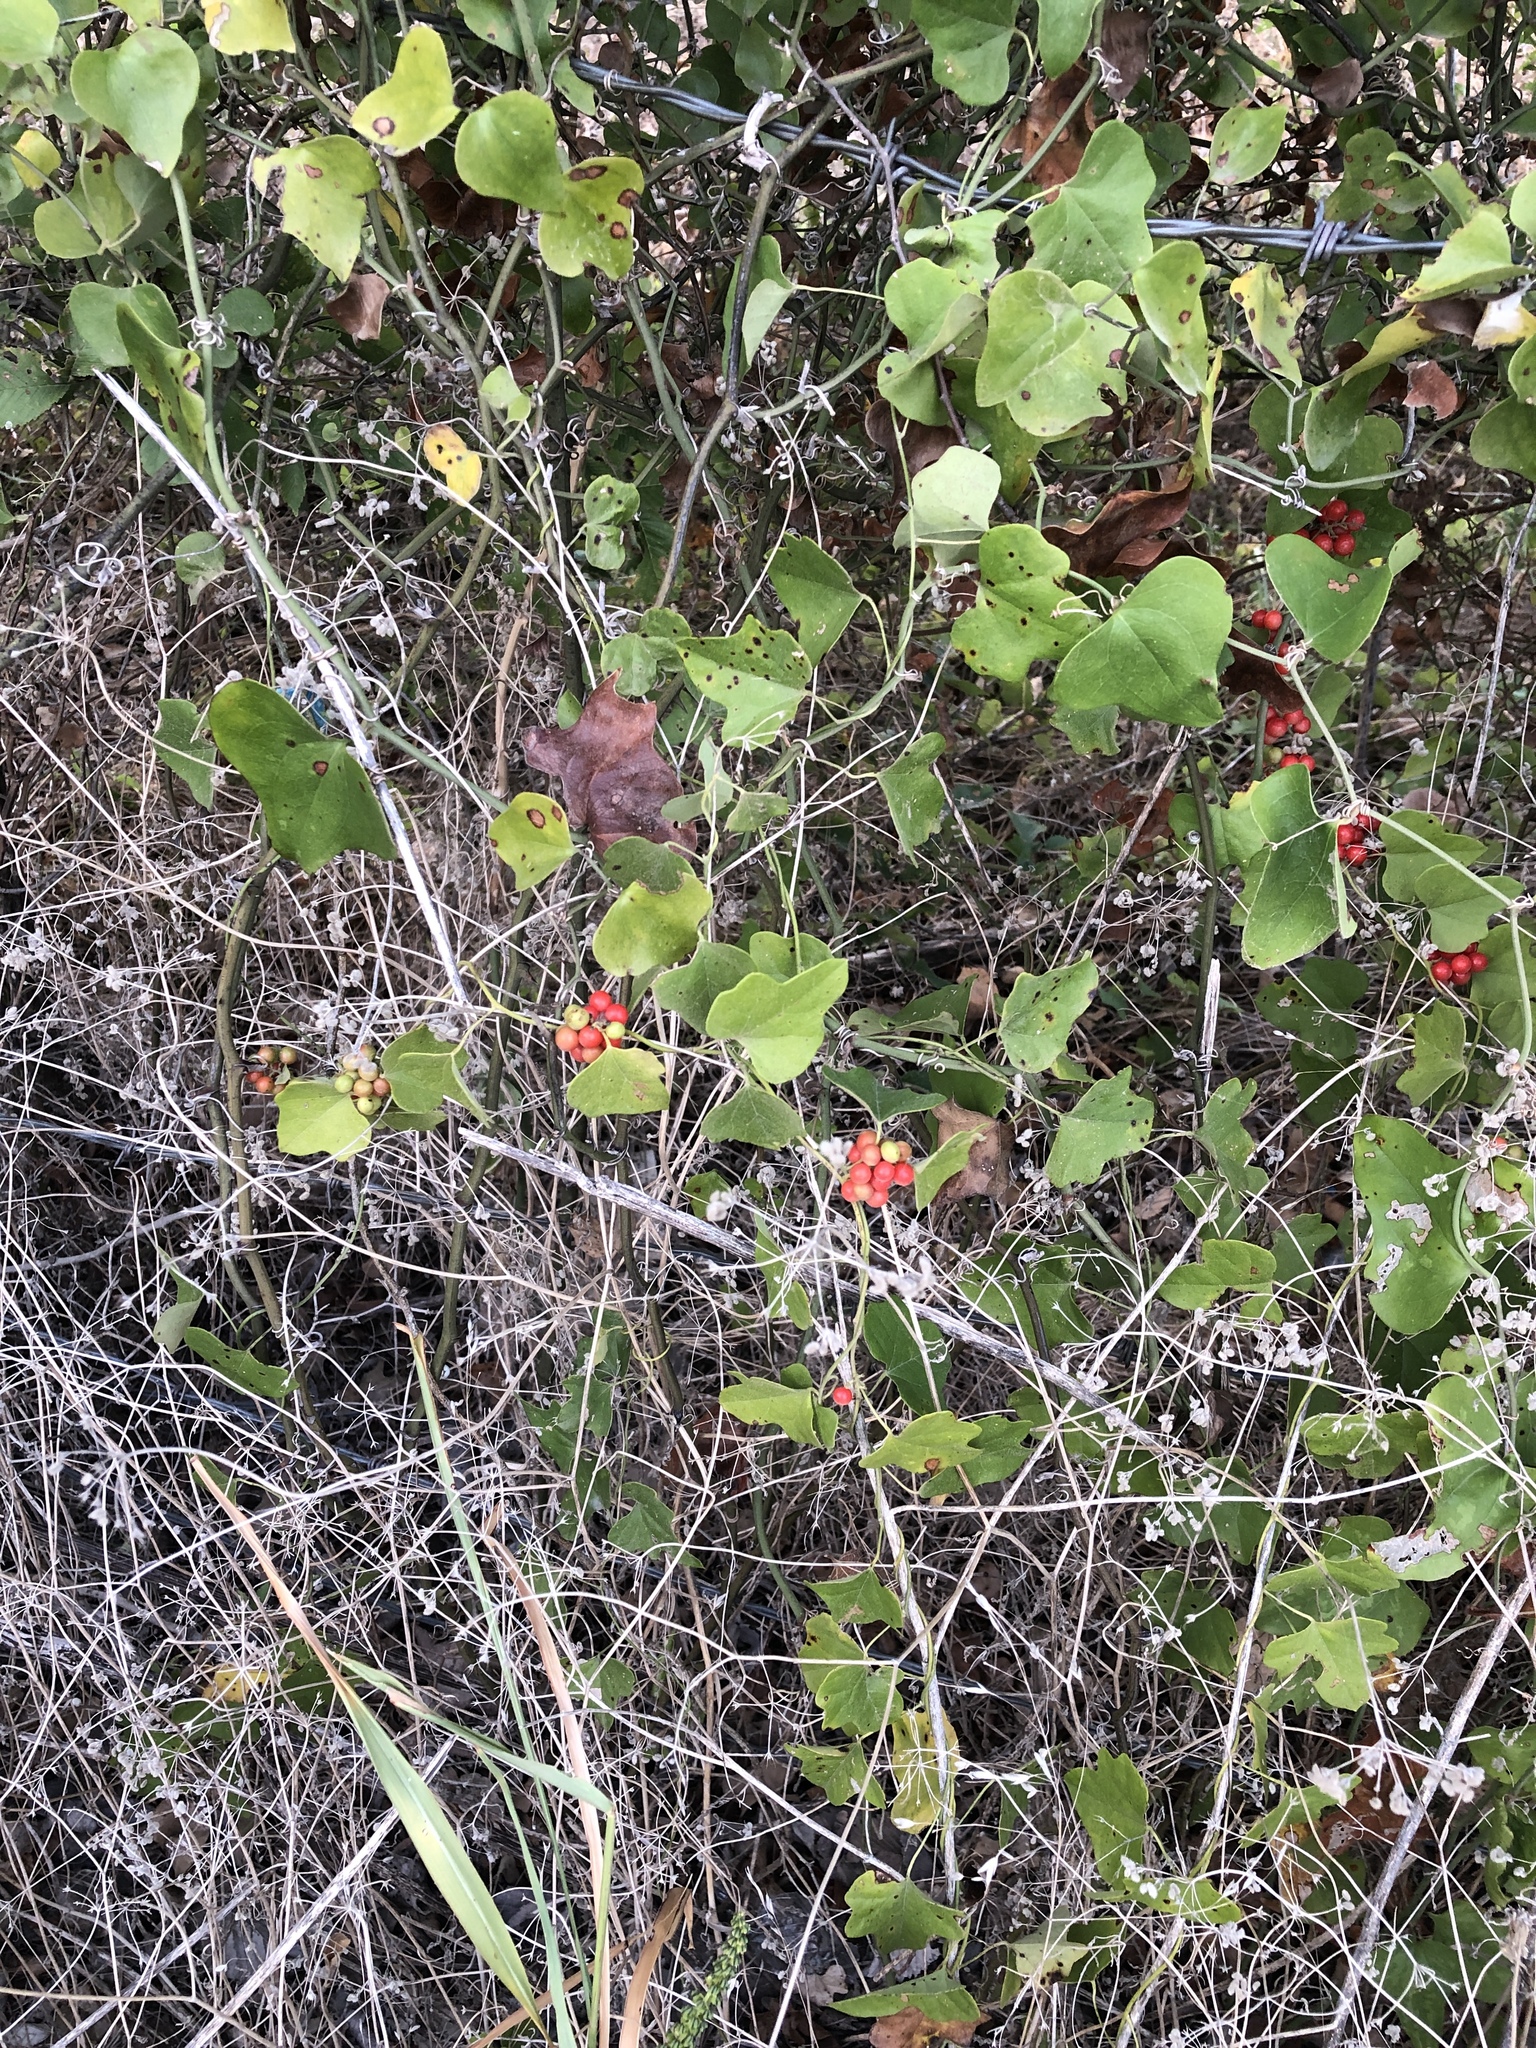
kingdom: Plantae
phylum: Tracheophyta
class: Magnoliopsida
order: Ranunculales
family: Menispermaceae
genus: Cocculus
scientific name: Cocculus carolinus
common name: Carolina moonseed
